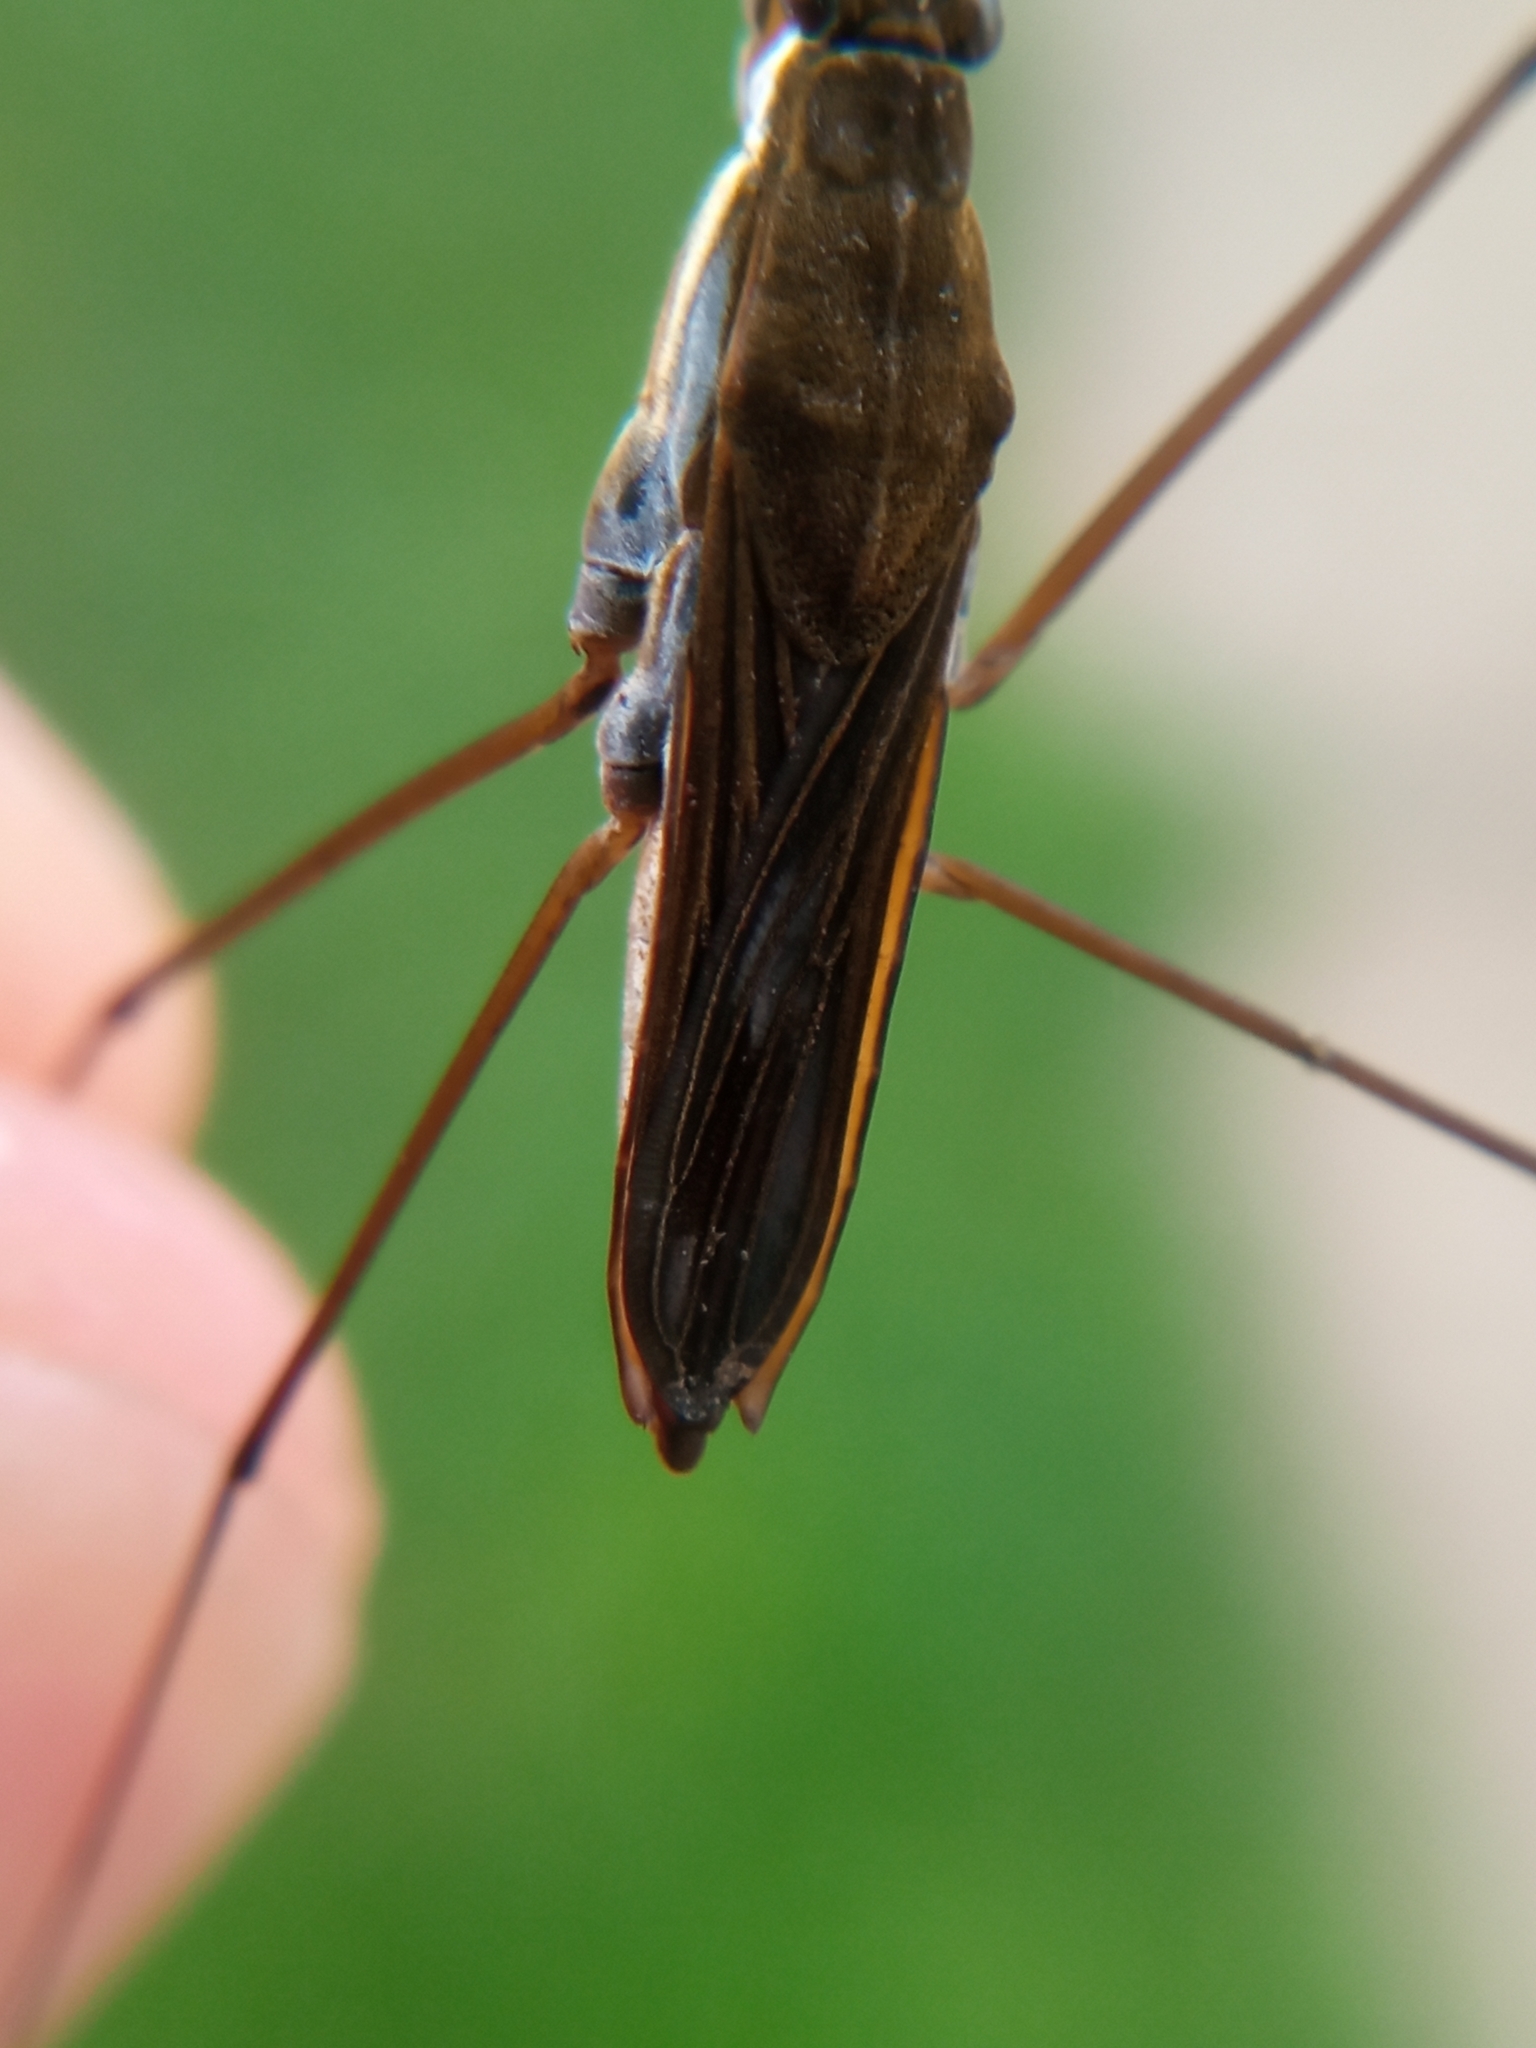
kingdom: Animalia
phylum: Arthropoda
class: Insecta
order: Hemiptera
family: Gerridae
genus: Gerris
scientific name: Gerris gibbifer
